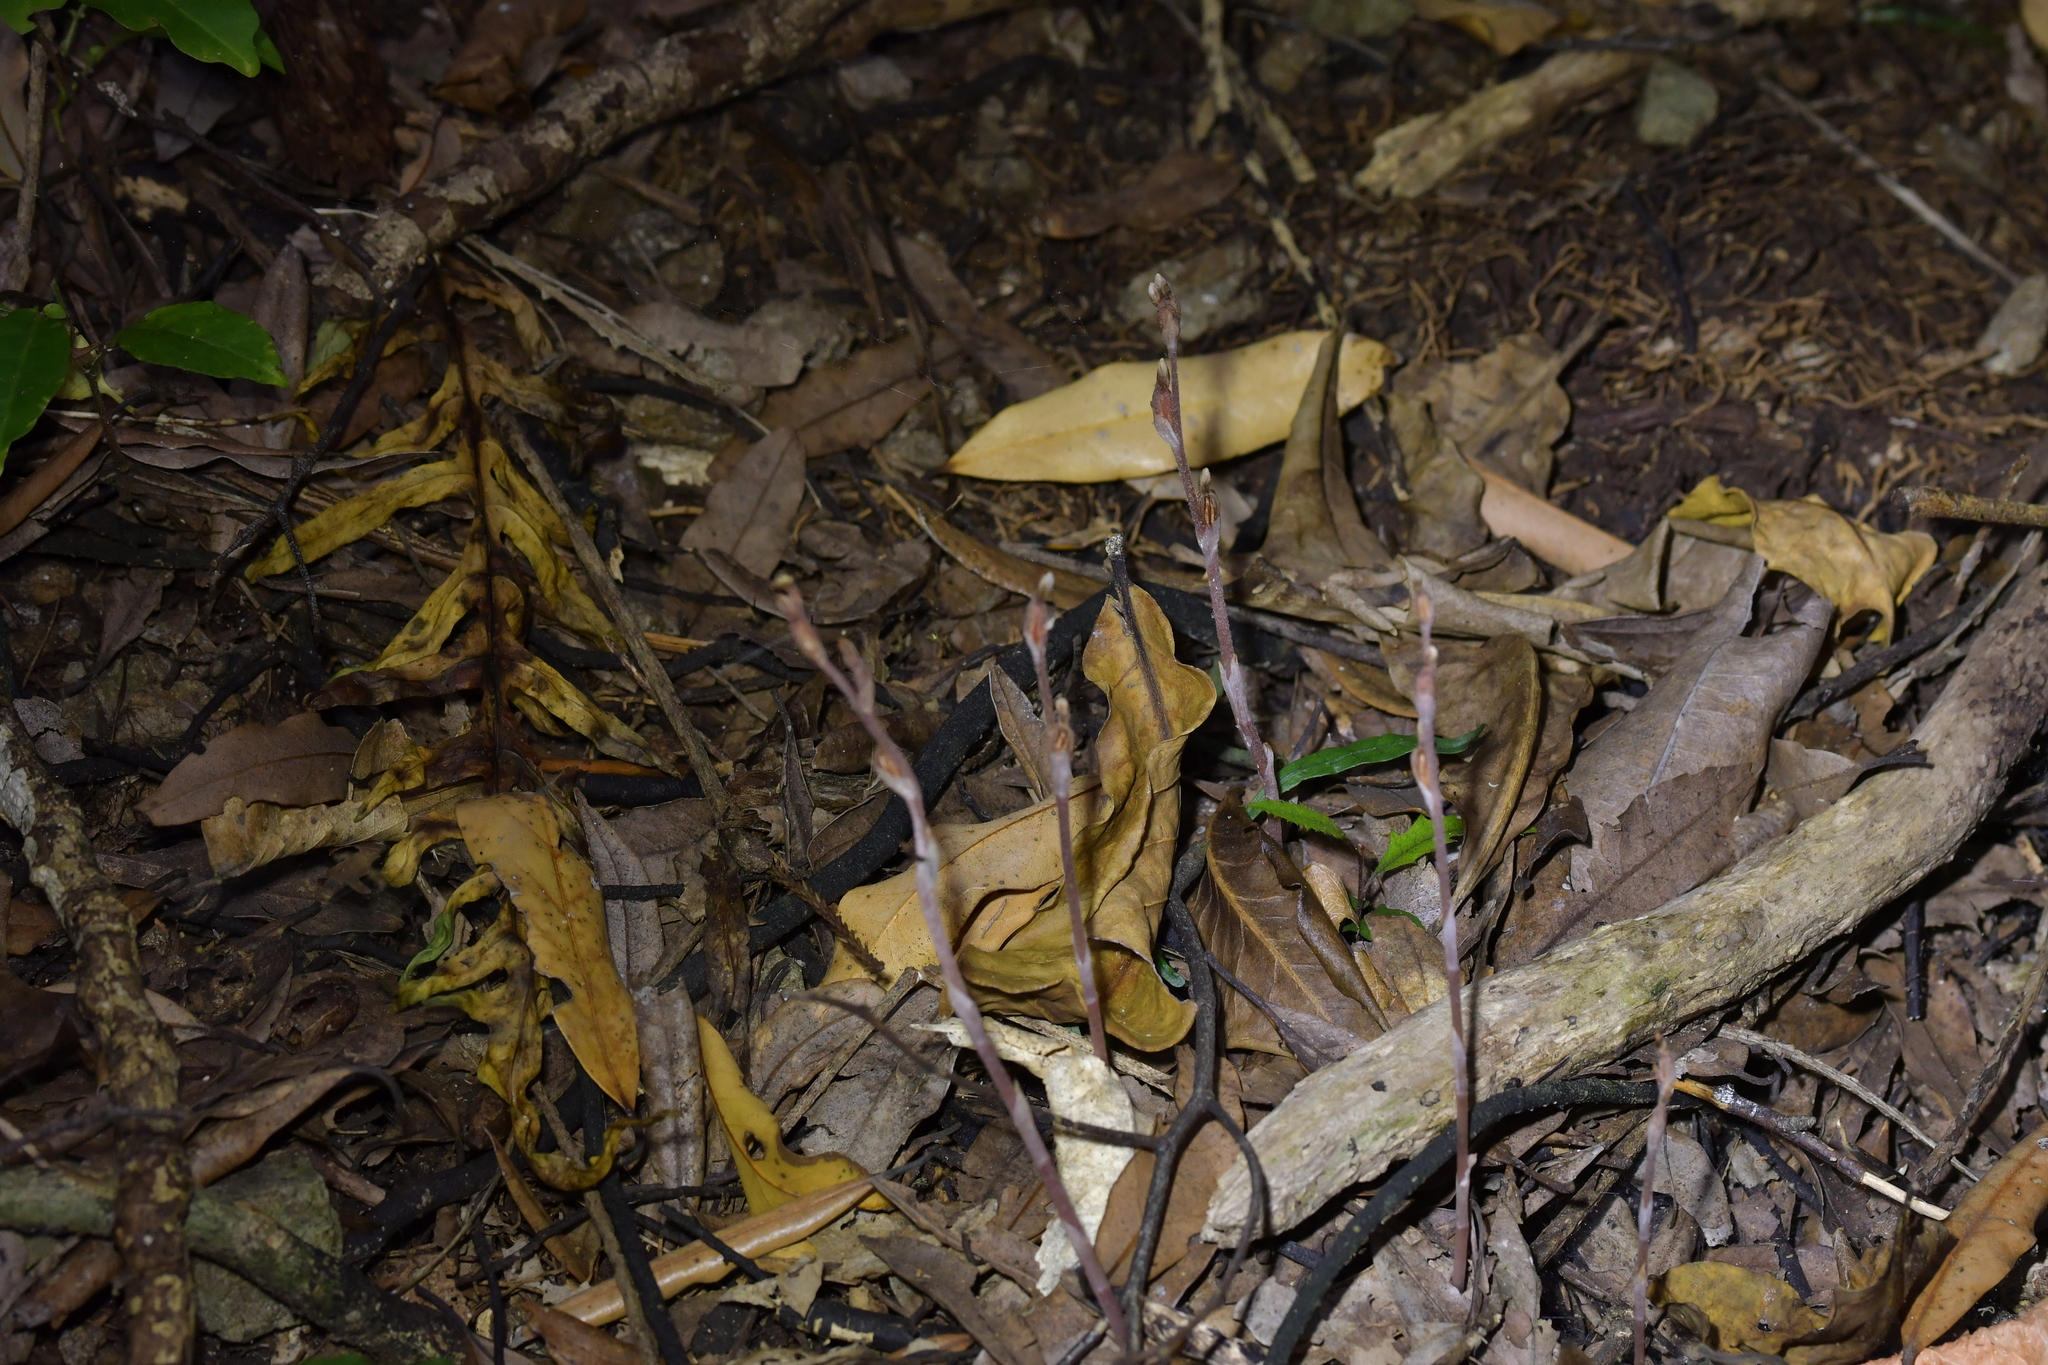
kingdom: Plantae
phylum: Tracheophyta
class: Liliopsida
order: Asparagales
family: Orchidaceae
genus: Danhatchia
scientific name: Danhatchia australis
